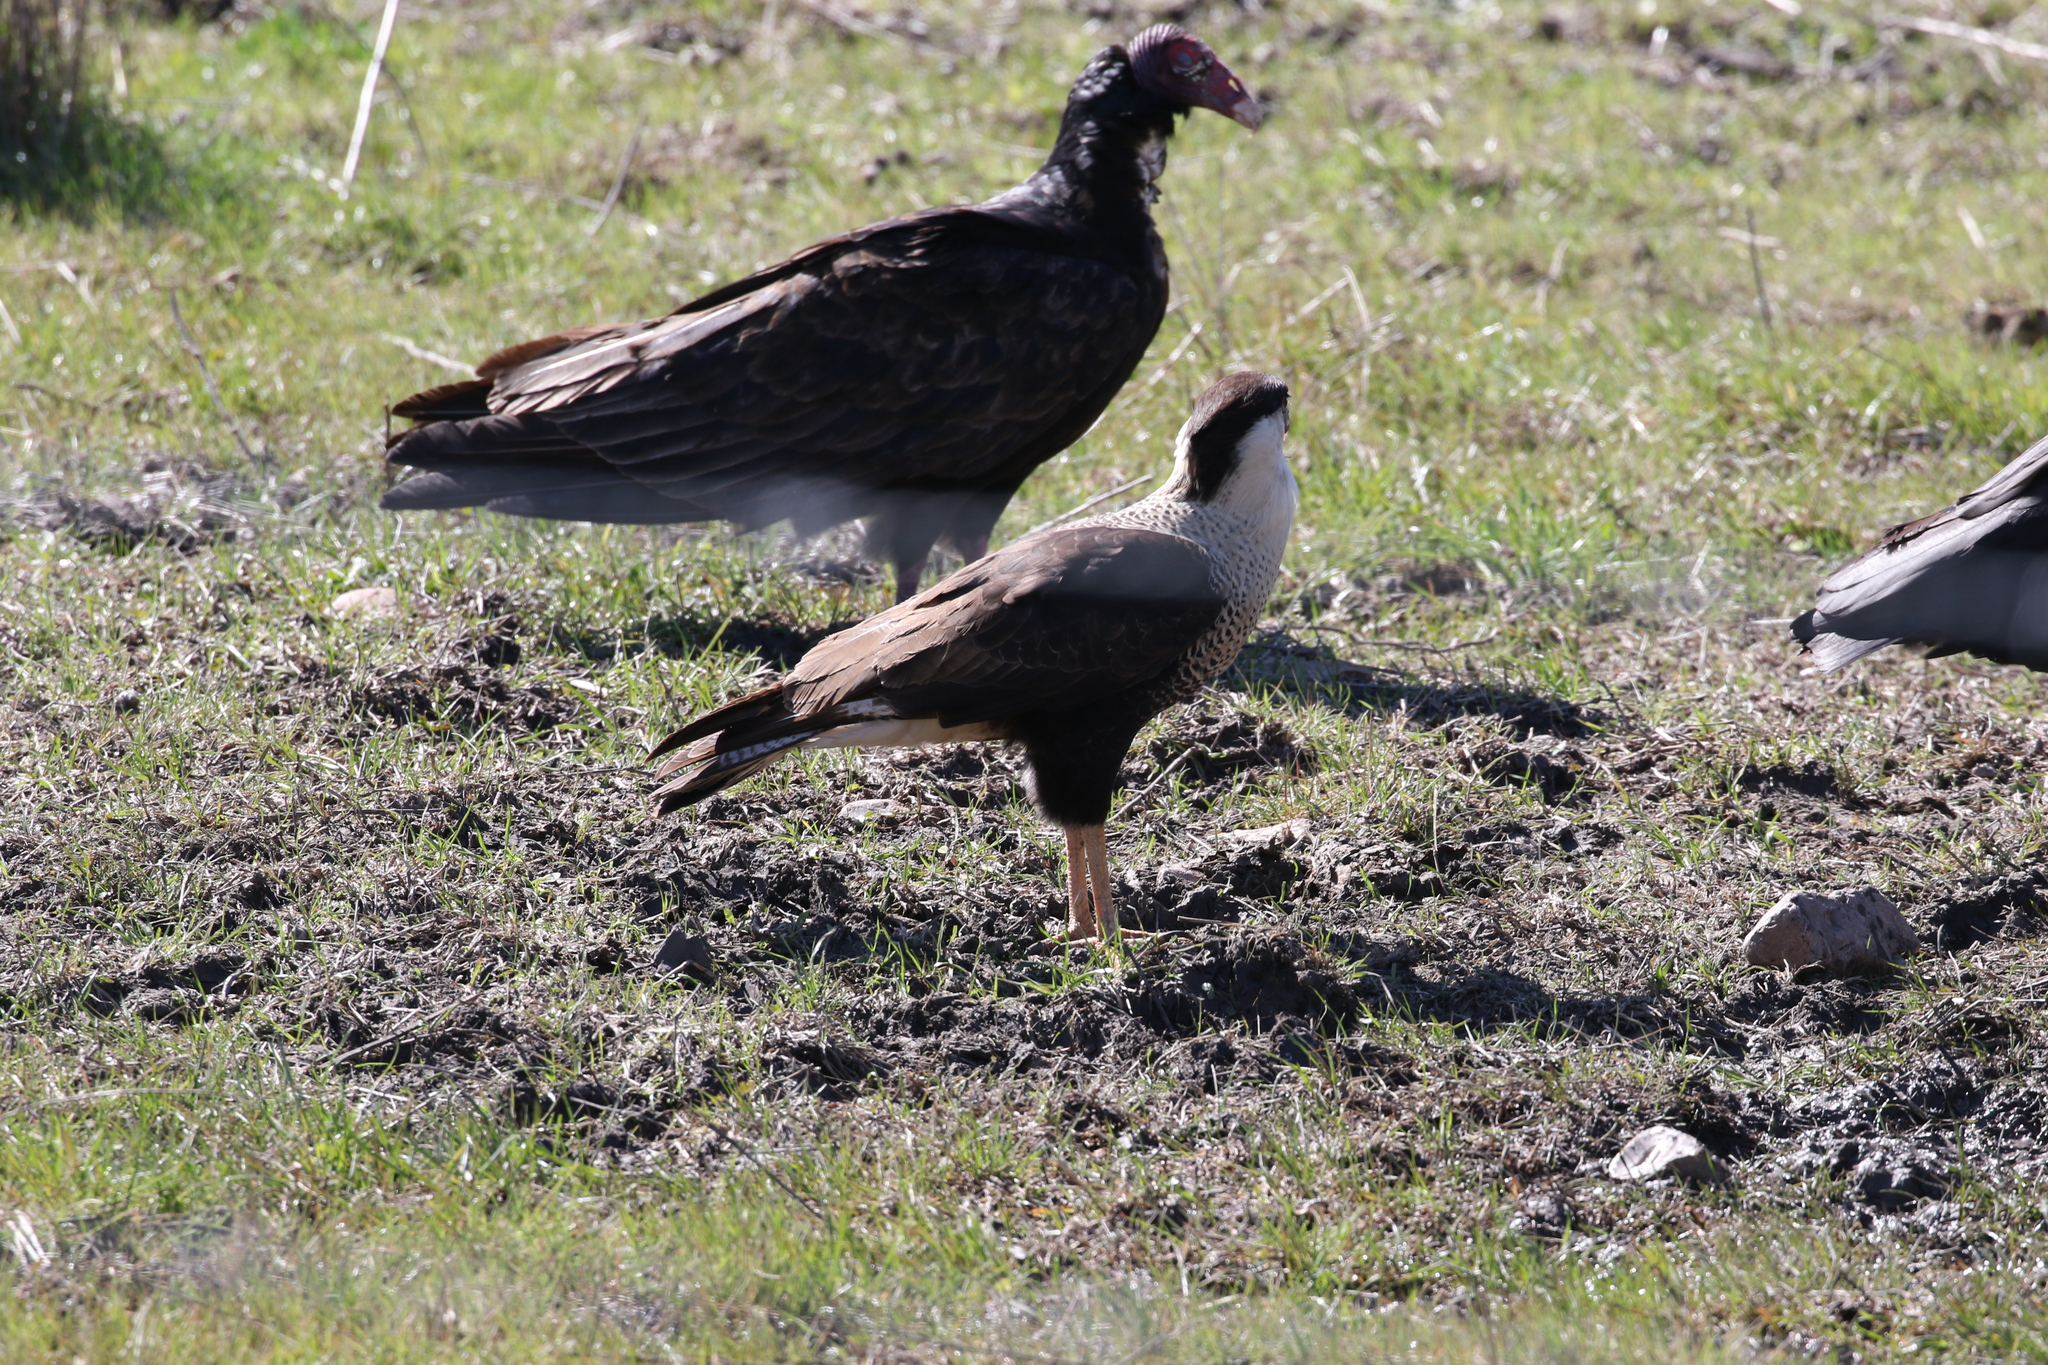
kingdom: Animalia
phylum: Chordata
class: Aves
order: Falconiformes
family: Falconidae
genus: Caracara
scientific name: Caracara plancus
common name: Southern caracara
